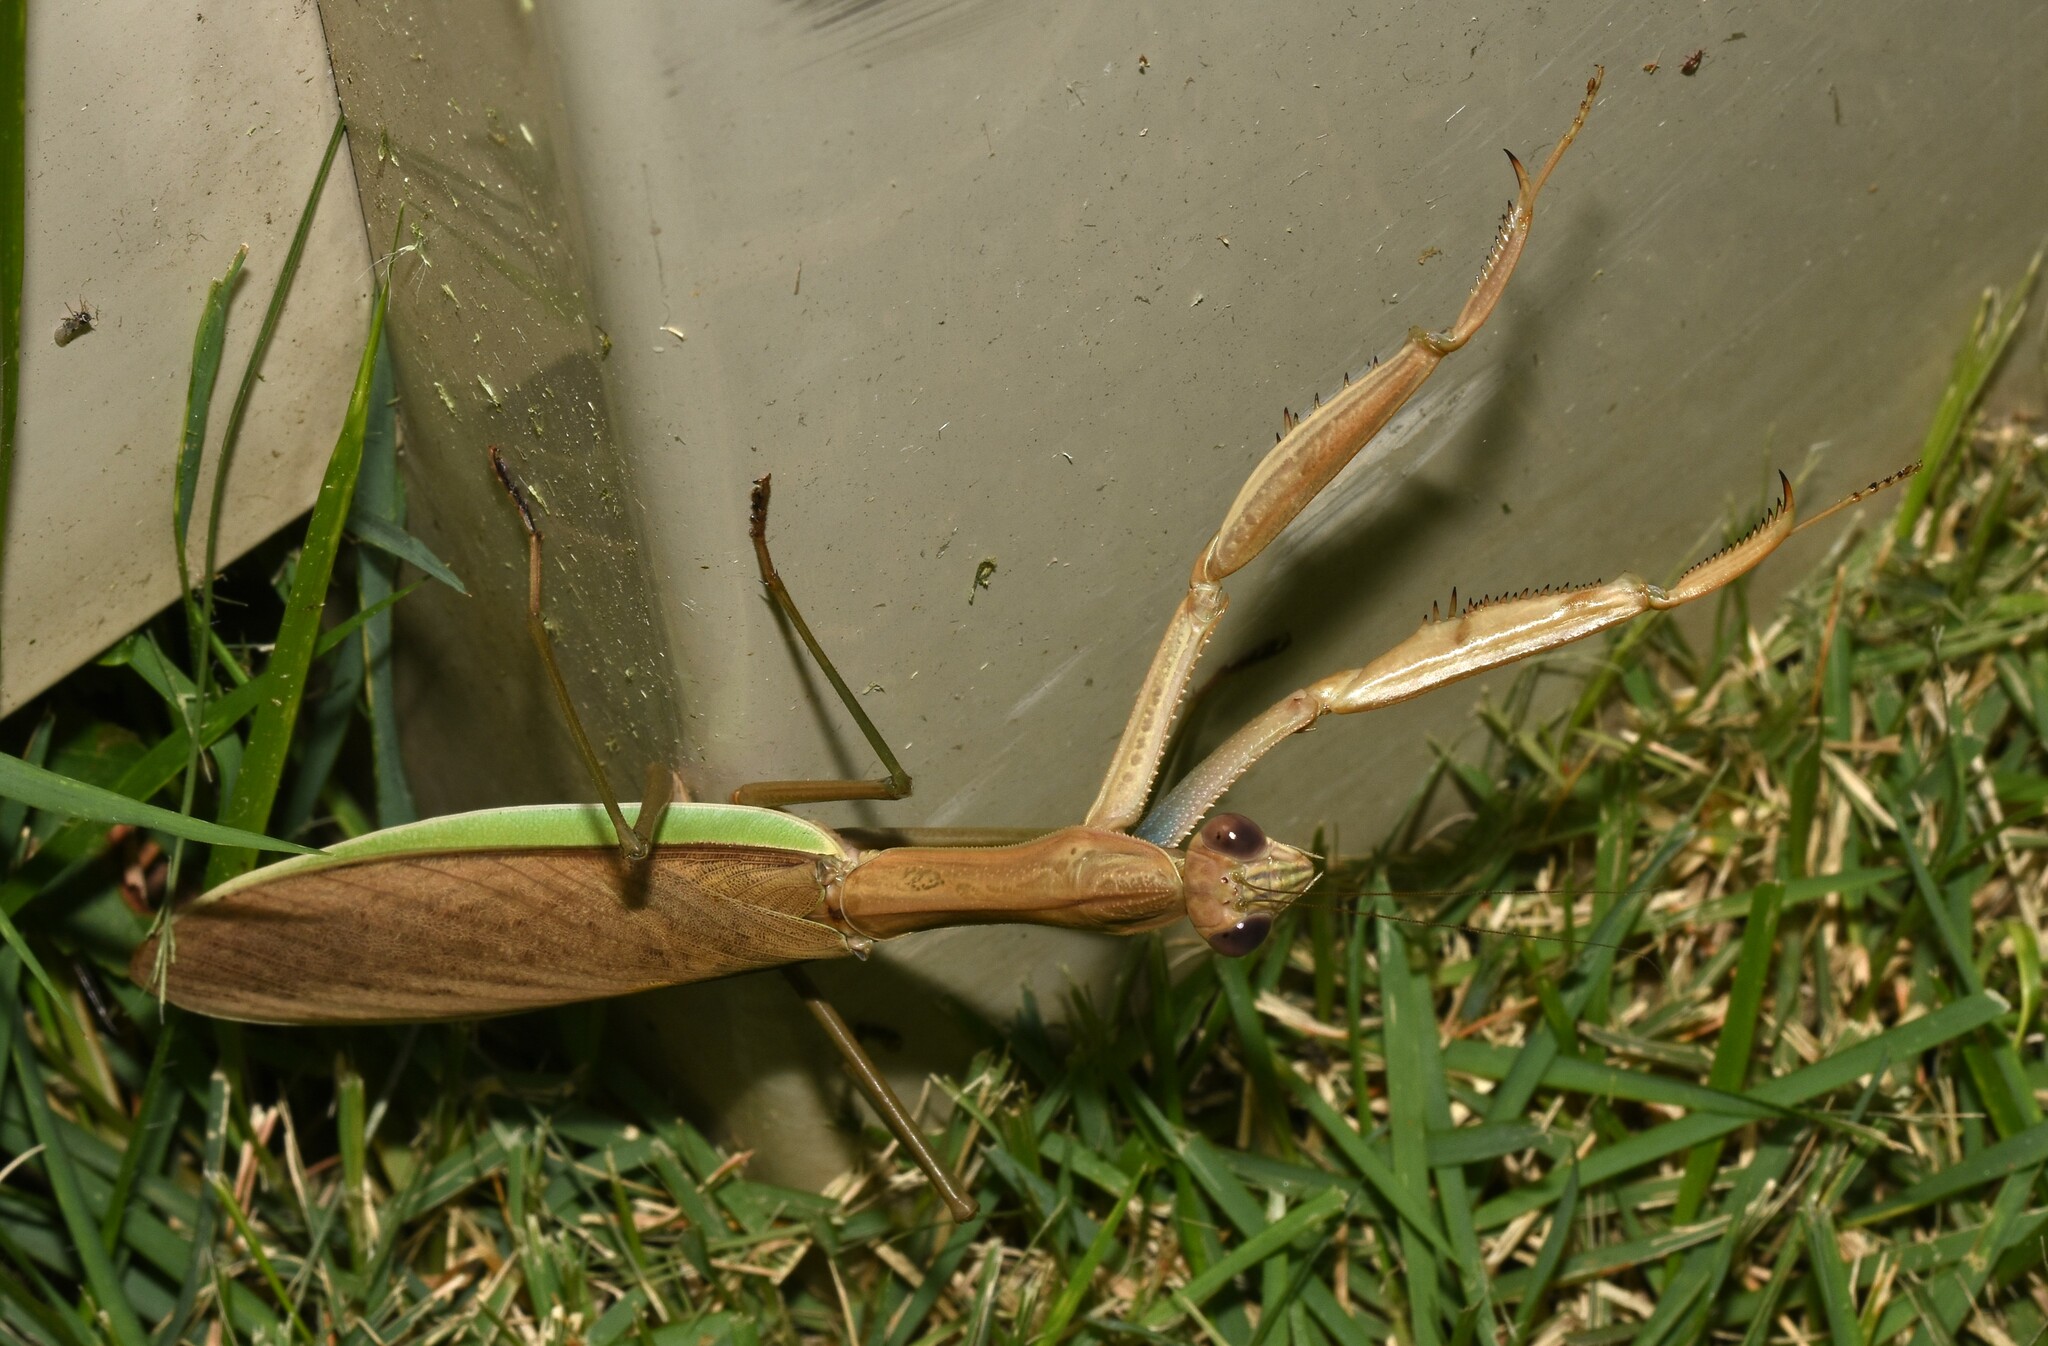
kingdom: Animalia
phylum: Arthropoda
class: Insecta
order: Mantodea
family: Mantidae
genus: Tenodera
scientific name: Tenodera sinensis
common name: Chinese mantis
